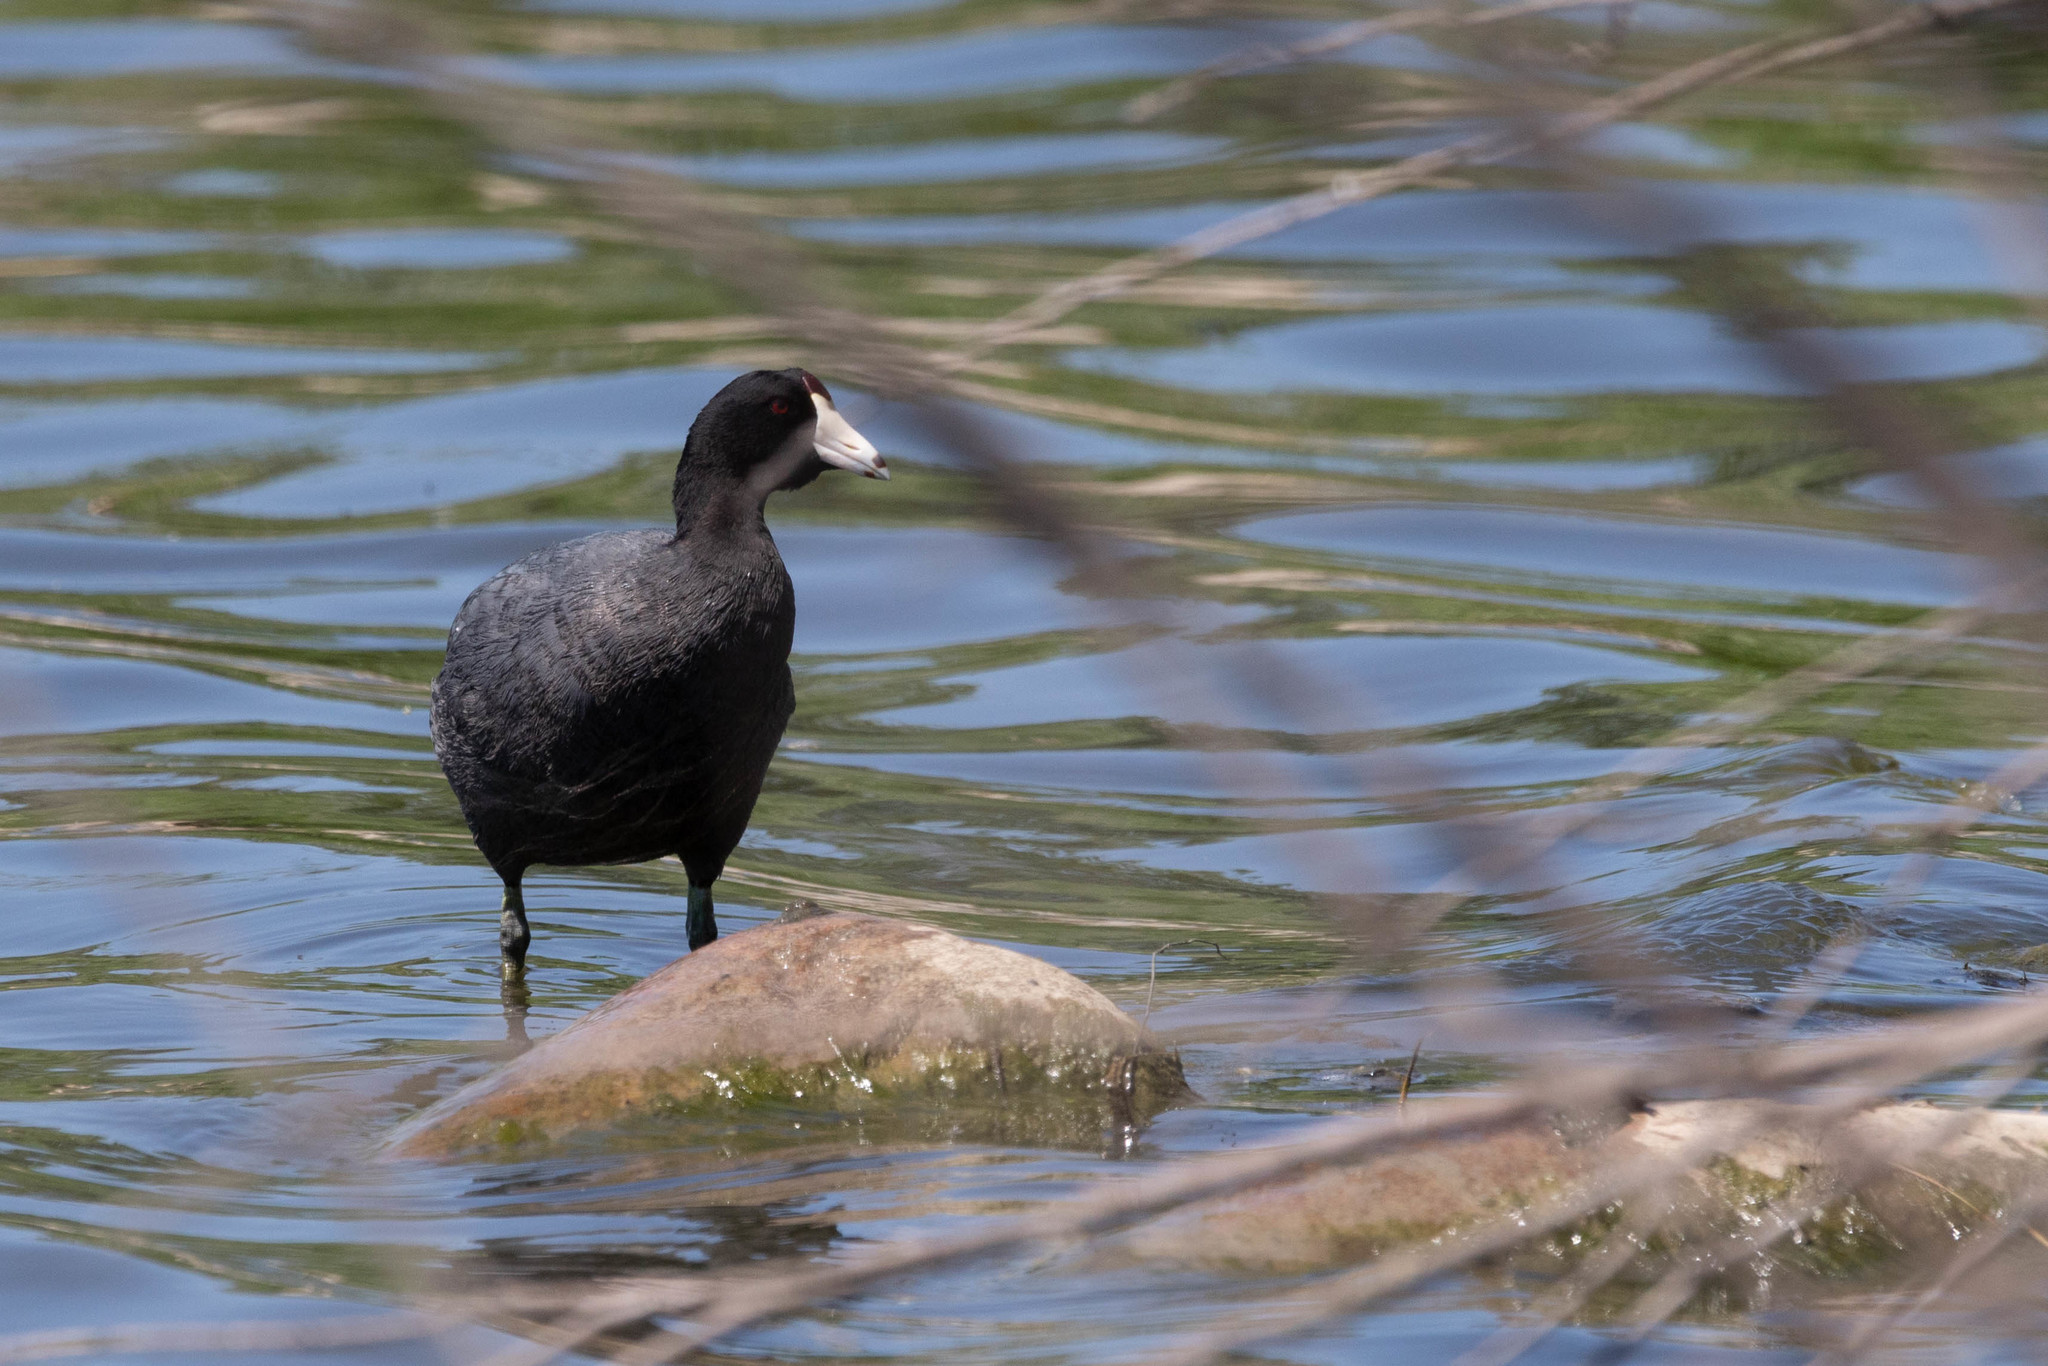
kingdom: Animalia
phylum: Chordata
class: Aves
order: Gruiformes
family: Rallidae
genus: Fulica
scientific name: Fulica americana
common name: American coot
